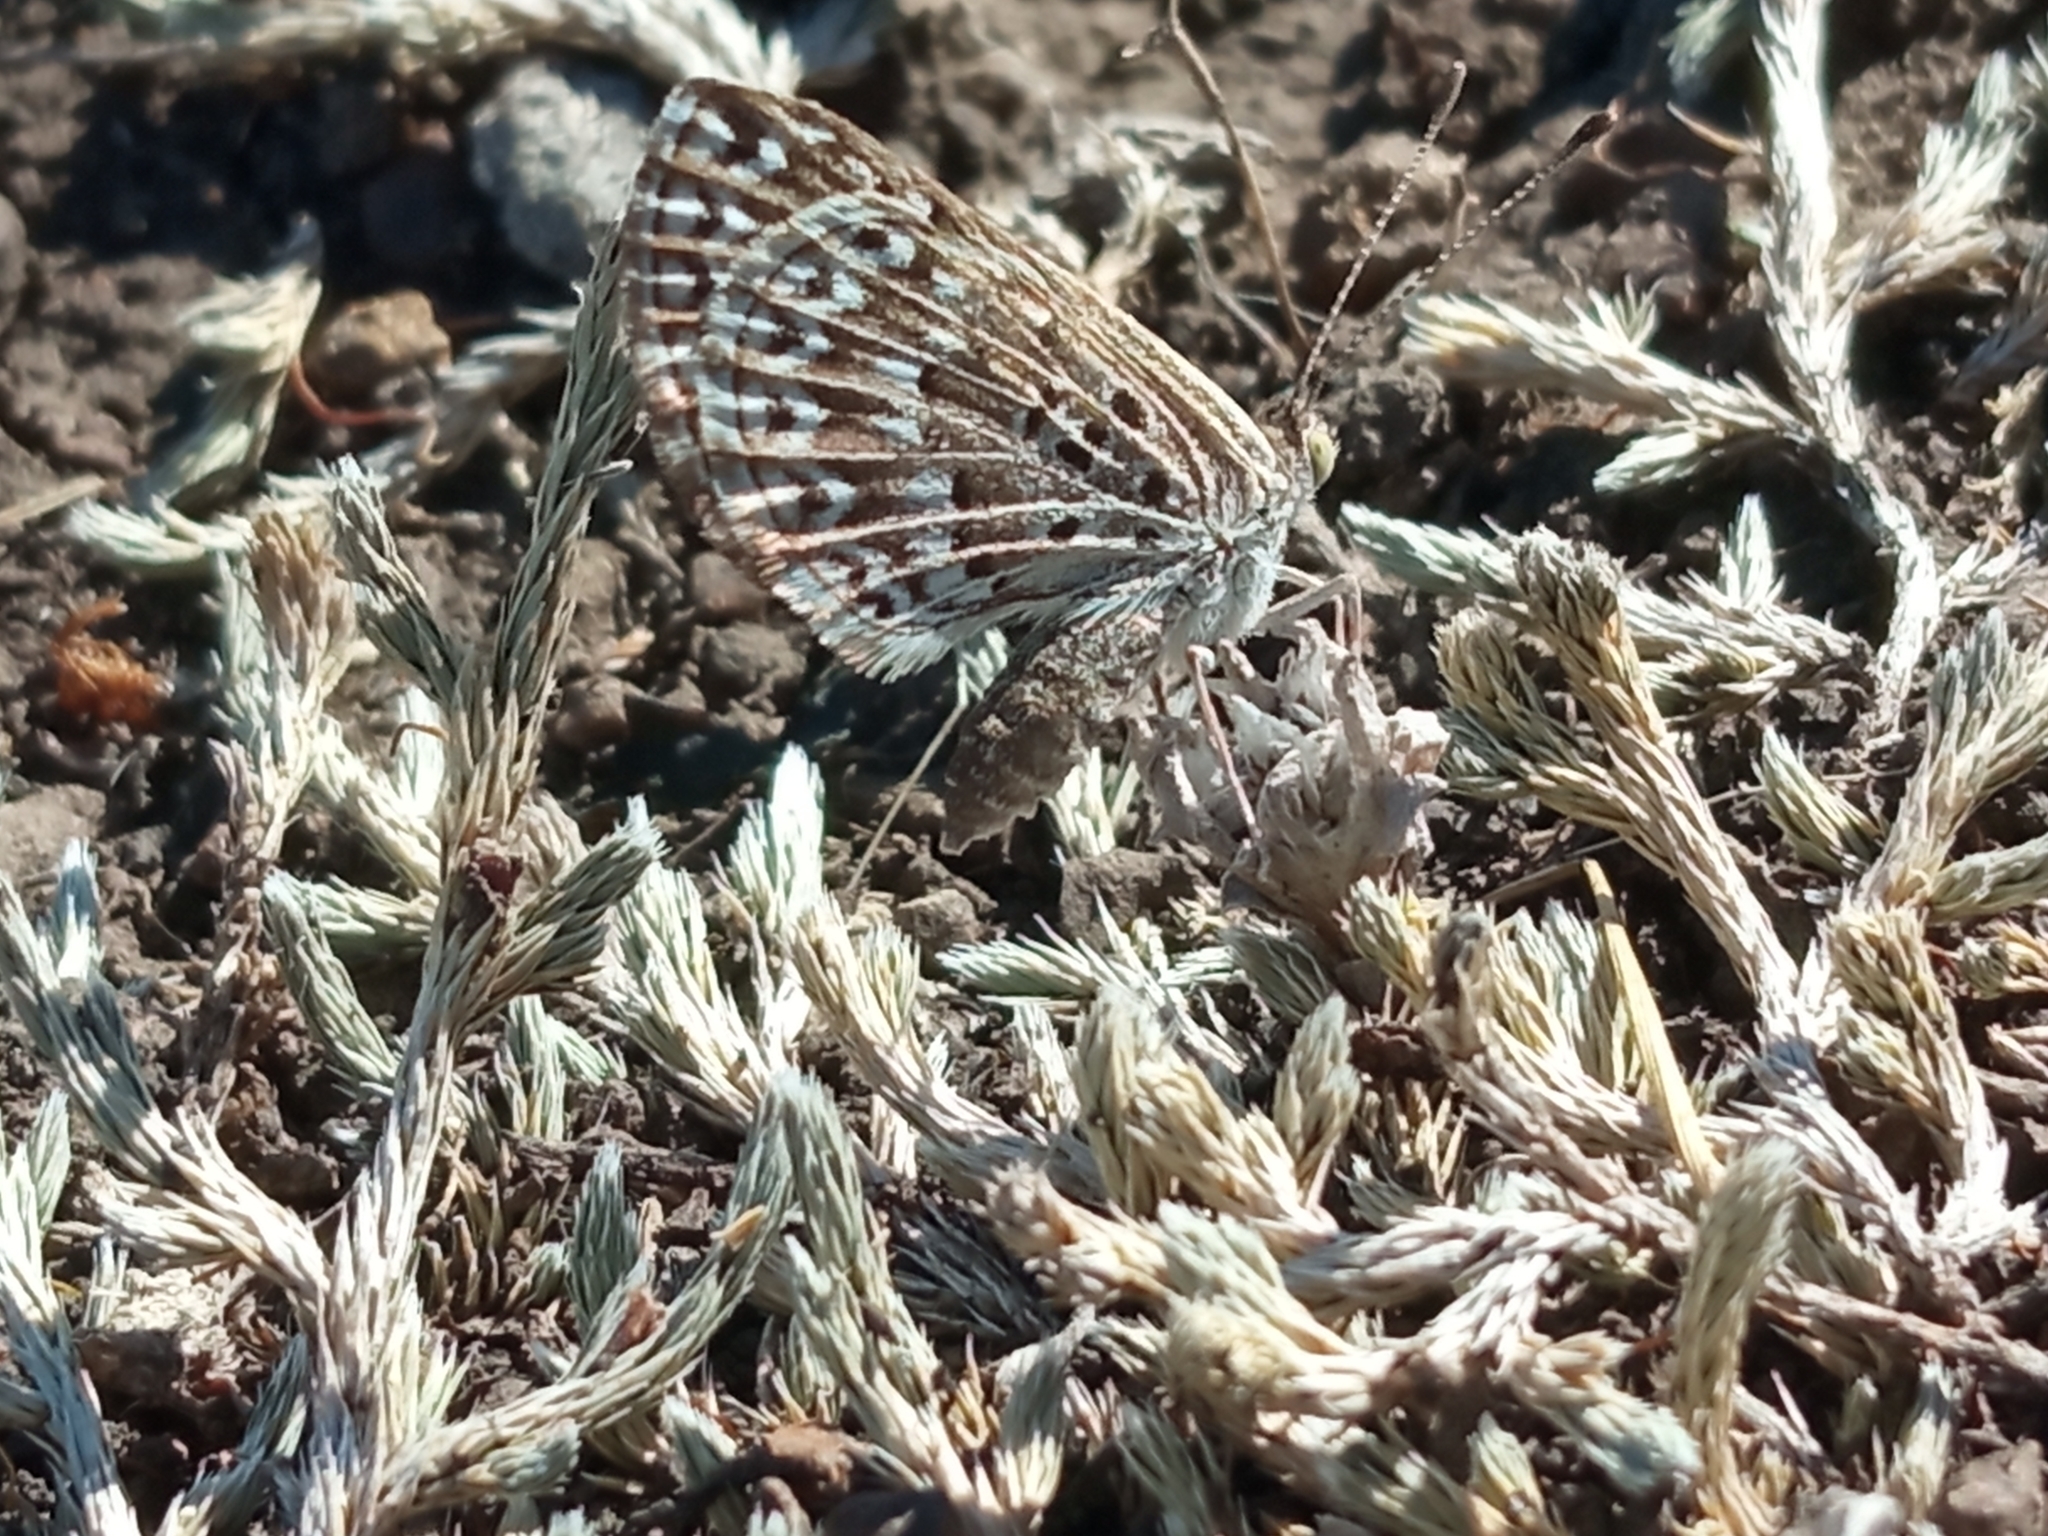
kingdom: Animalia
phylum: Arthropoda
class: Insecta
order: Lepidoptera
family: Riodinidae
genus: Zabuella
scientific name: Zabuella tenellus
